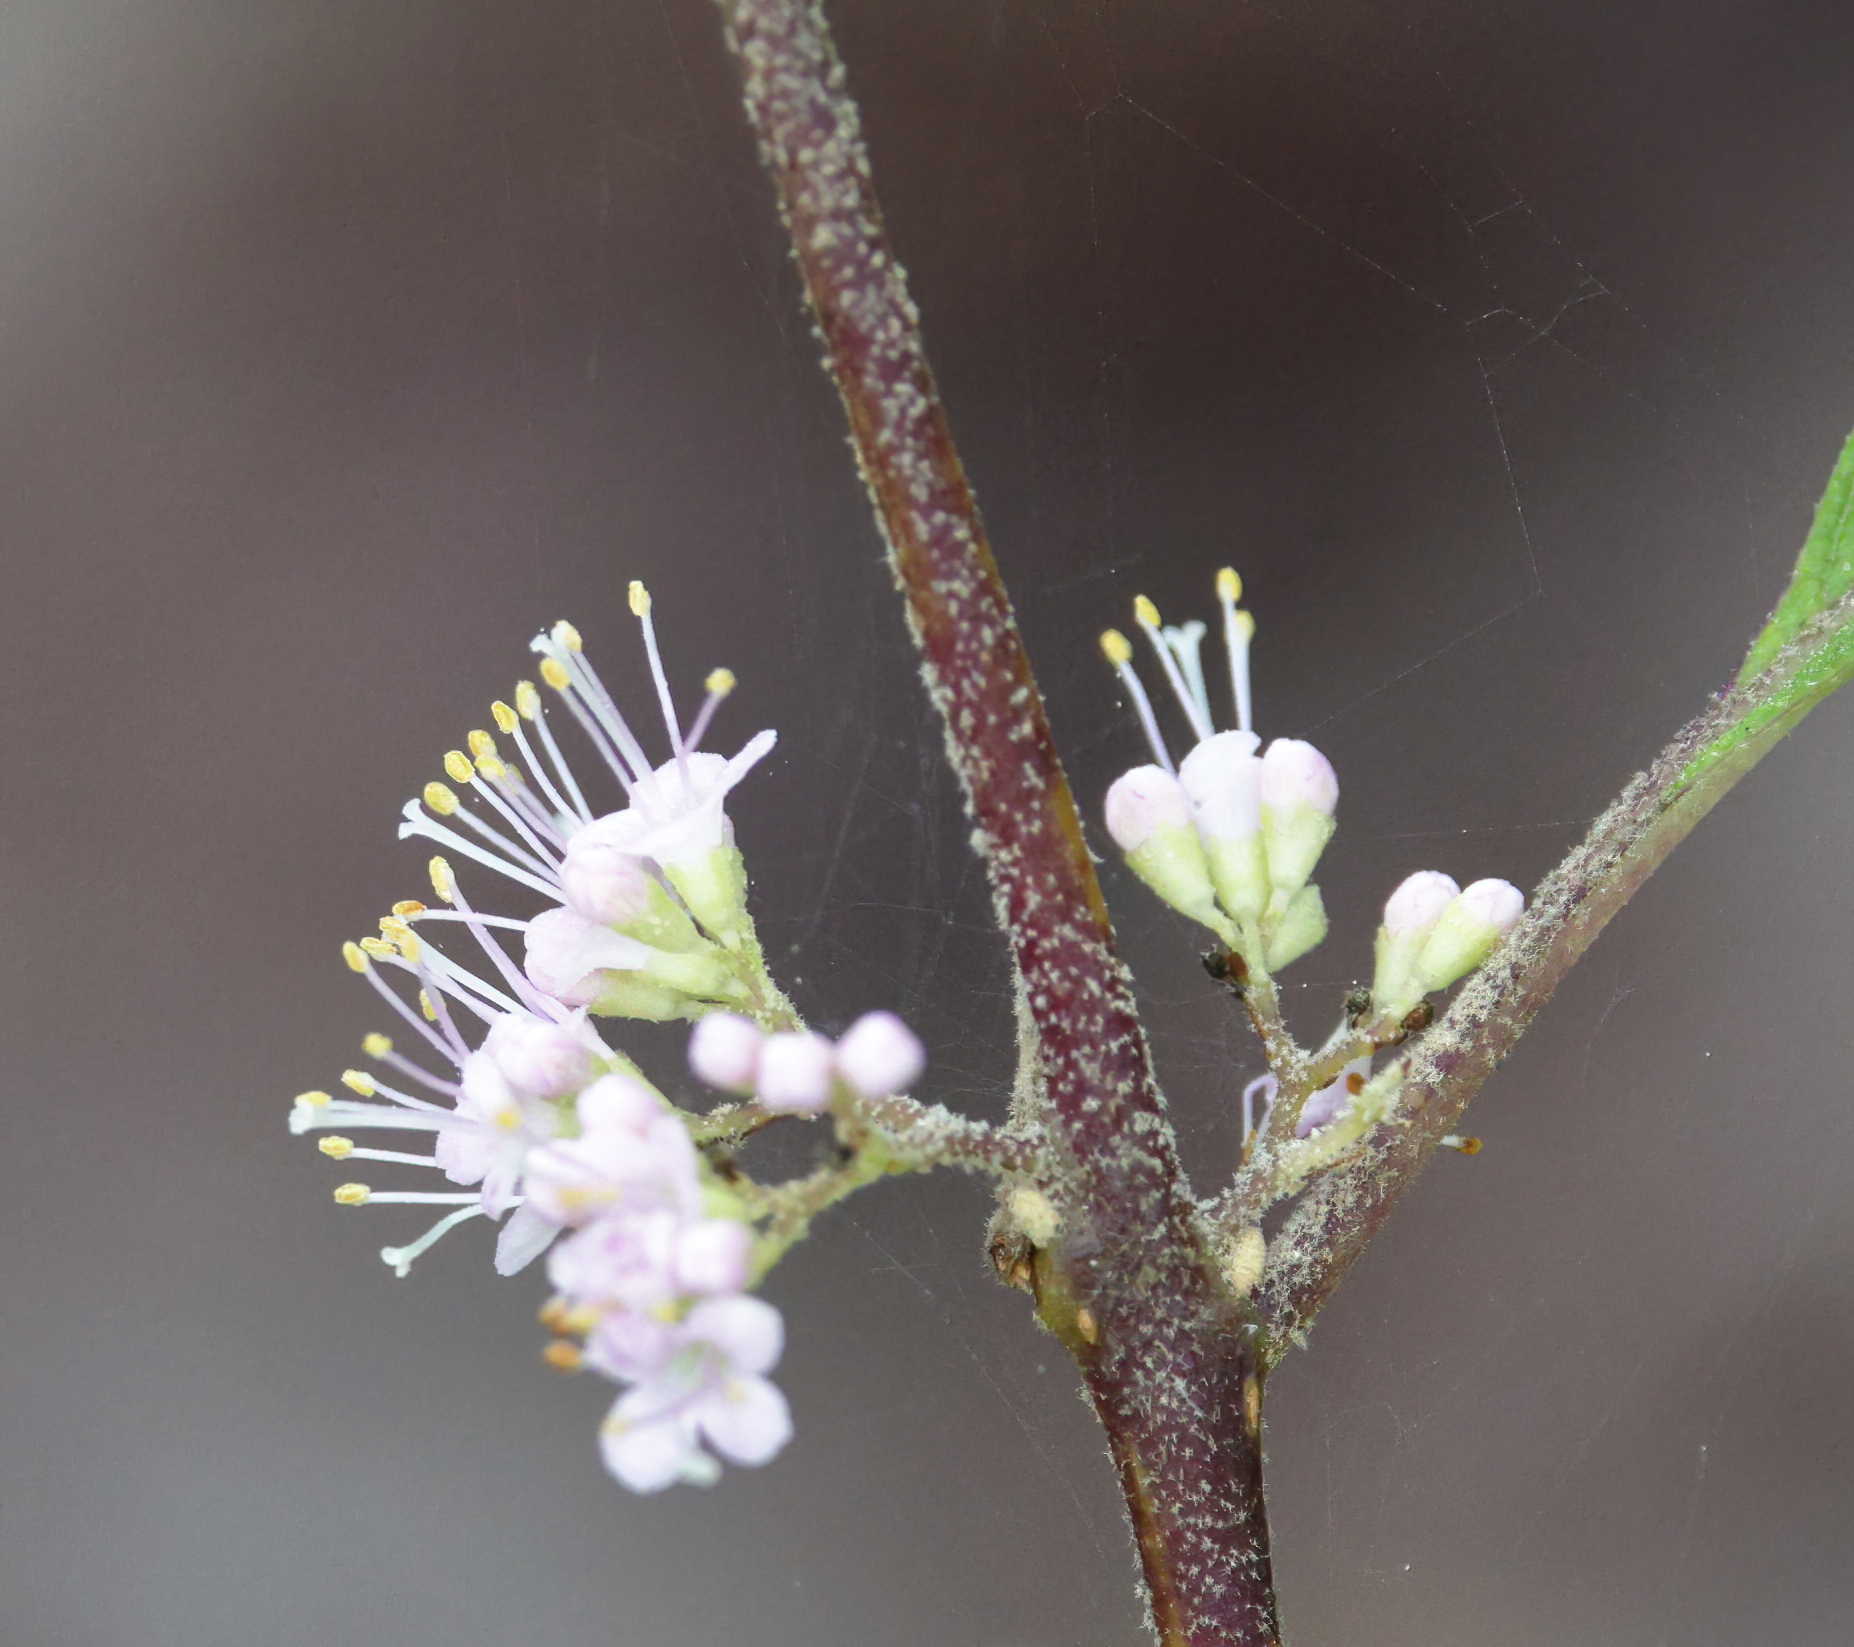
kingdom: Plantae
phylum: Tracheophyta
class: Magnoliopsida
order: Lamiales
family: Lamiaceae
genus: Callicarpa
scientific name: Callicarpa americana
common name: American beautyberry
